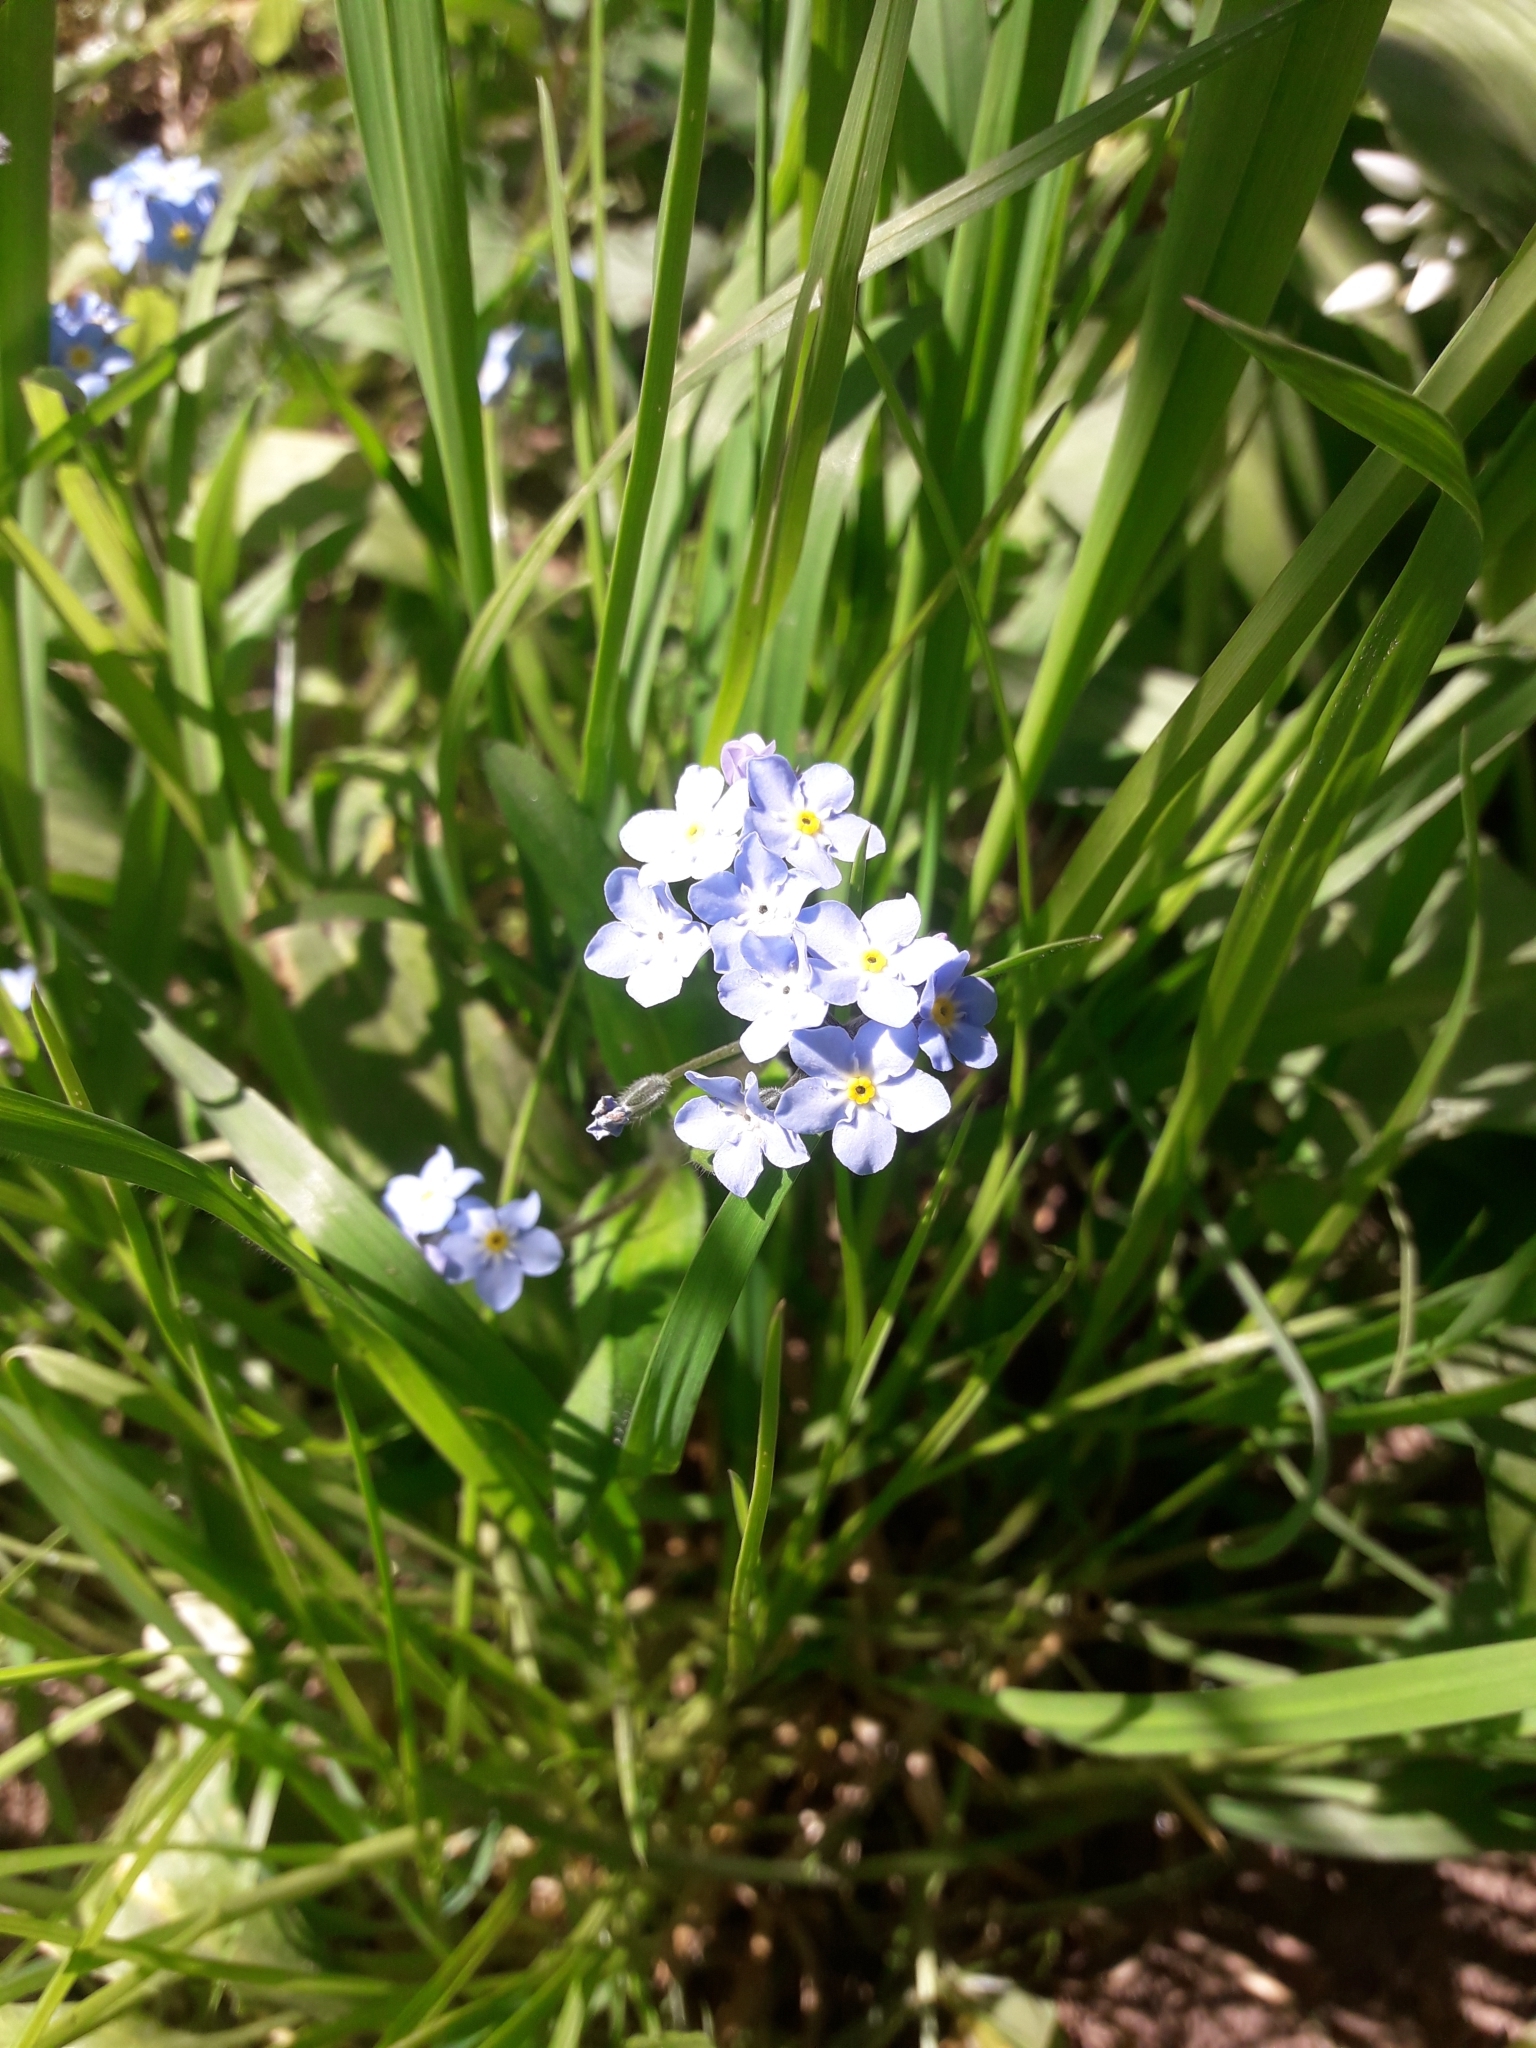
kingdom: Plantae
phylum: Tracheophyta
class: Magnoliopsida
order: Boraginales
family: Boraginaceae
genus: Myosotis
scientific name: Myosotis sylvatica
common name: Wood forget-me-not
